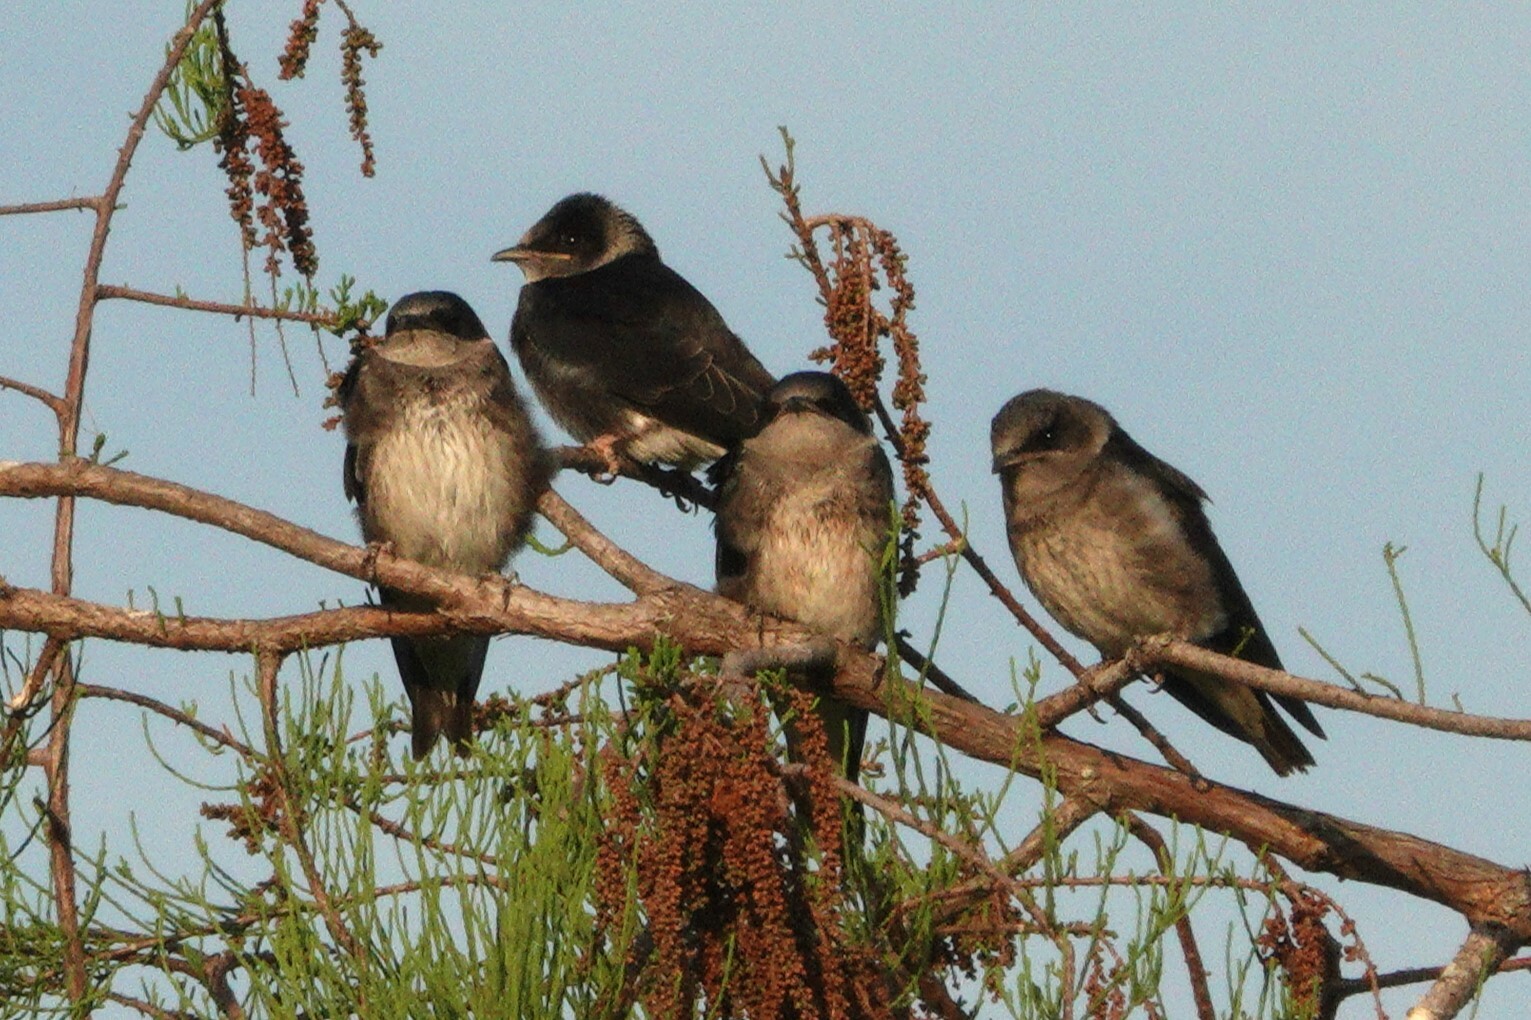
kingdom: Animalia
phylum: Chordata
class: Aves
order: Passeriformes
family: Hirundinidae
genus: Progne
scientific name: Progne subis
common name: Purple martin
